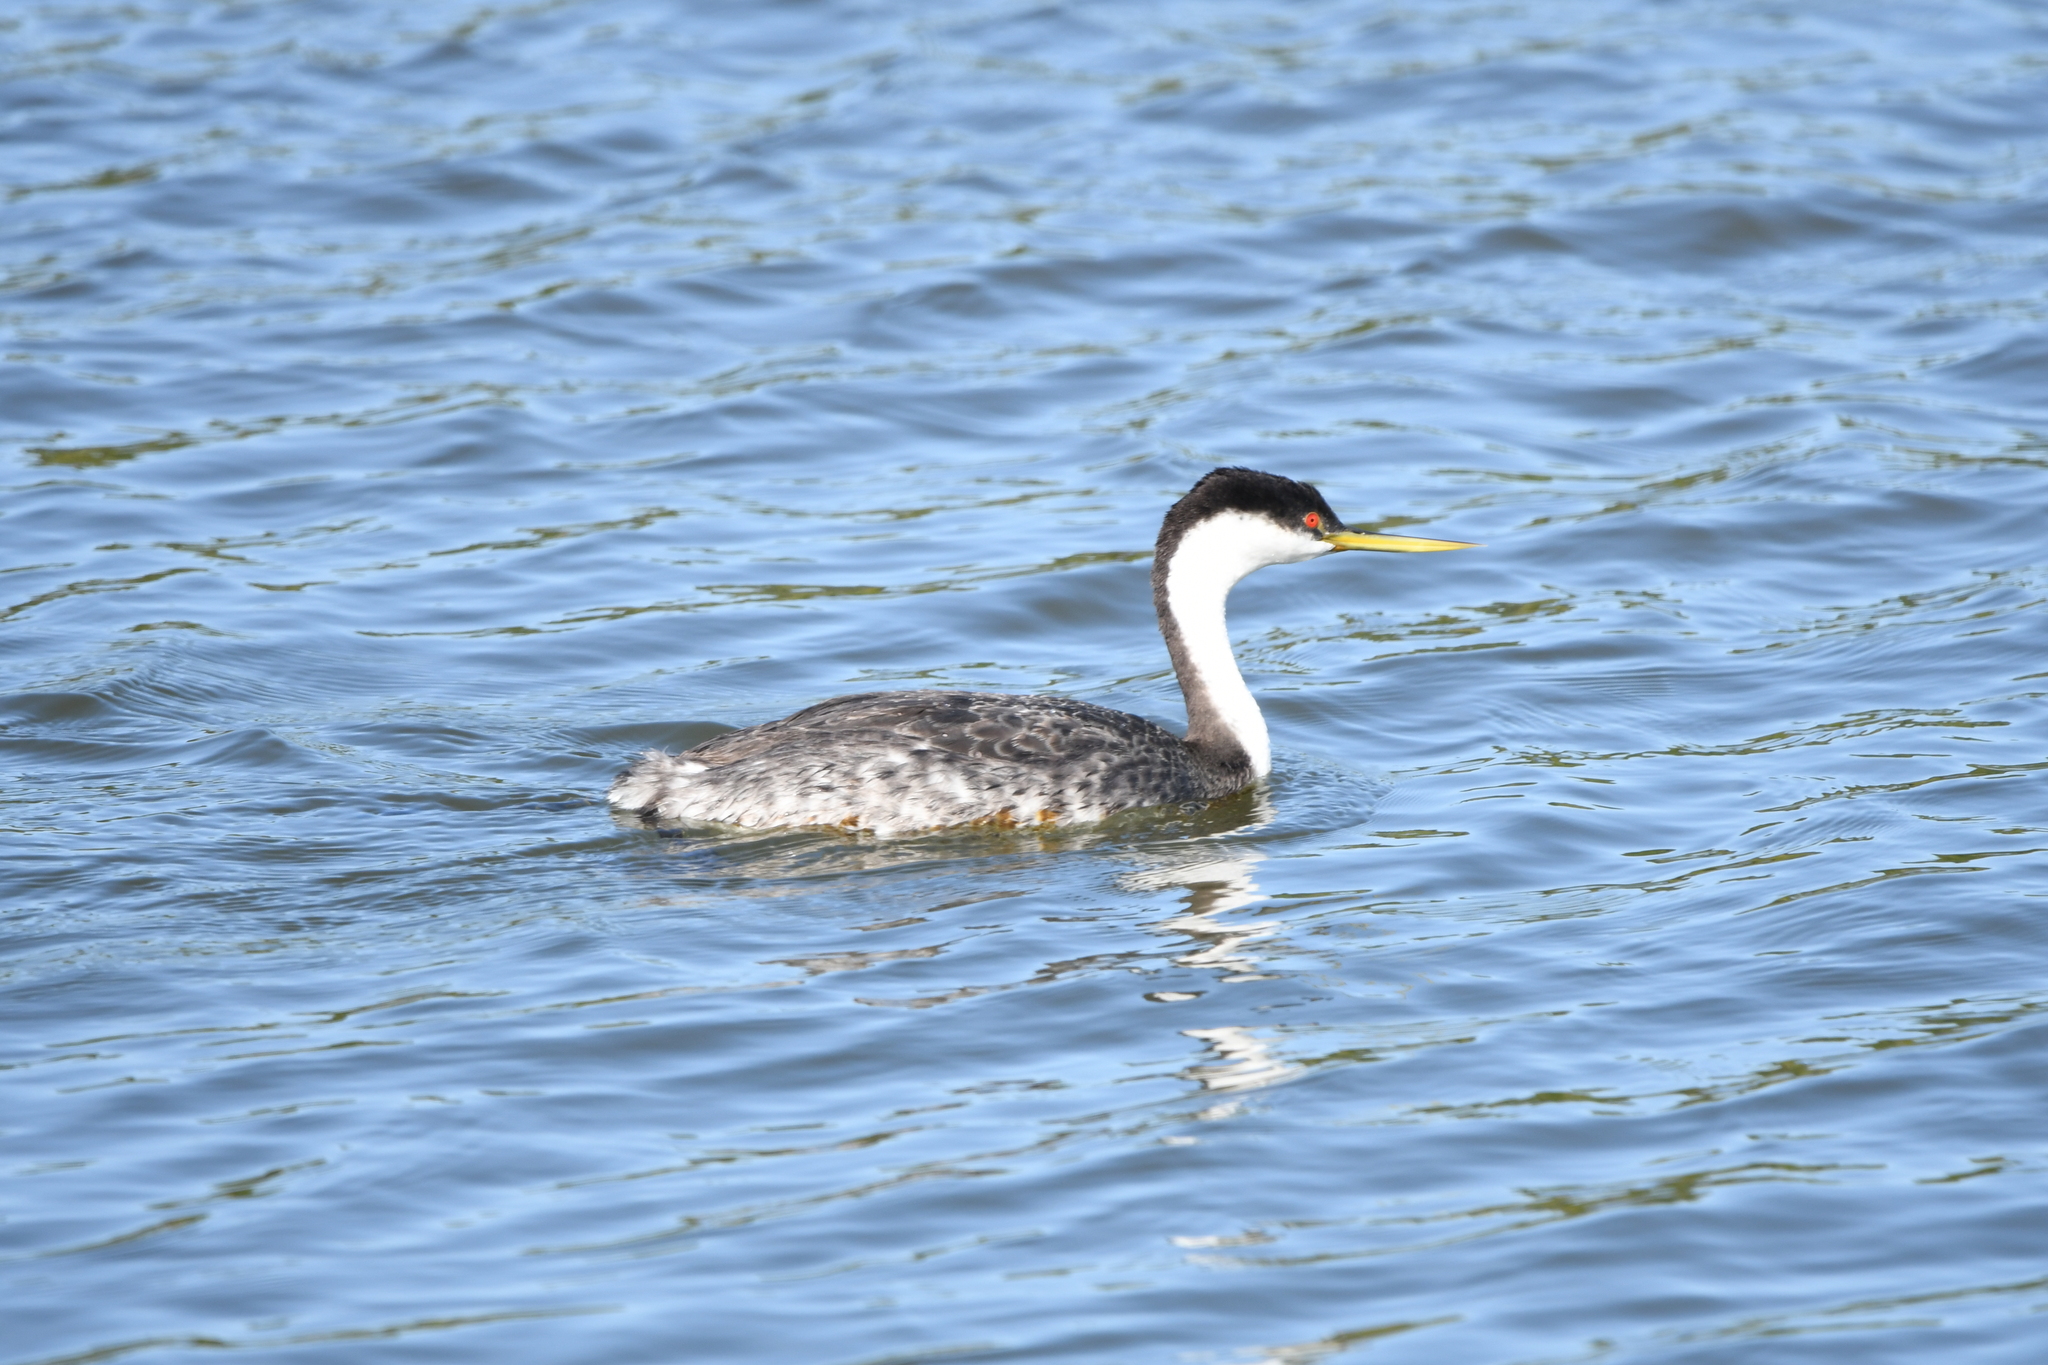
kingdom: Animalia
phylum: Chordata
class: Aves
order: Podicipediformes
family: Podicipedidae
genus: Aechmophorus
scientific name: Aechmophorus occidentalis
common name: Western grebe
